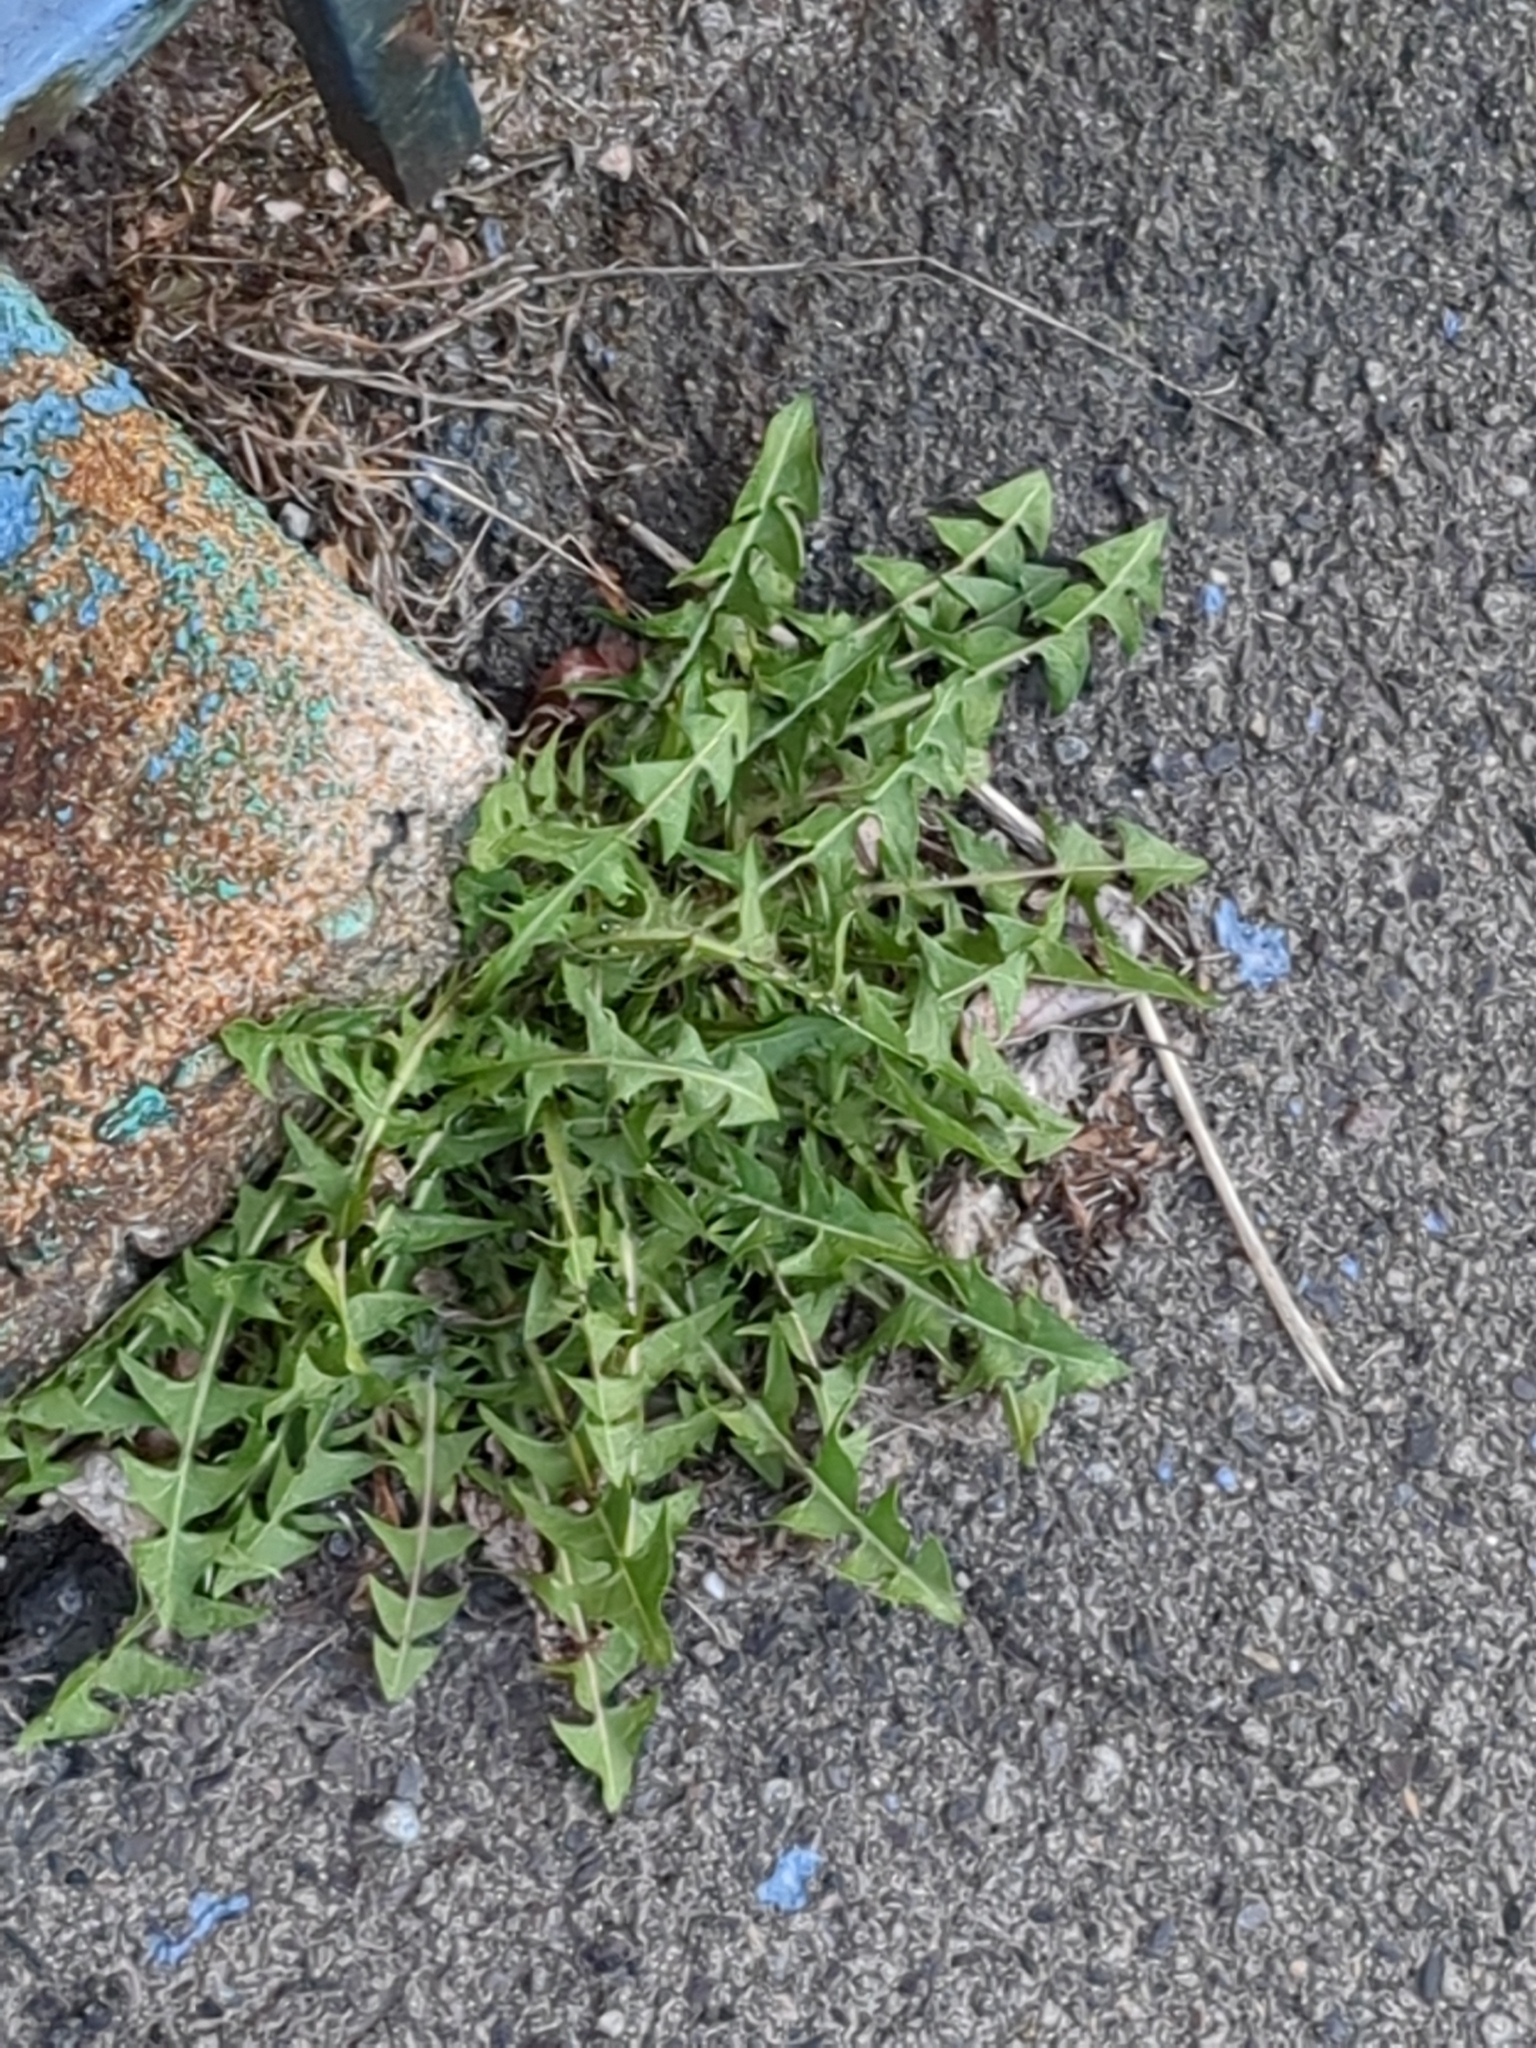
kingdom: Plantae
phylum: Tracheophyta
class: Magnoliopsida
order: Asterales
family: Asteraceae
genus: Taraxacum
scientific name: Taraxacum
